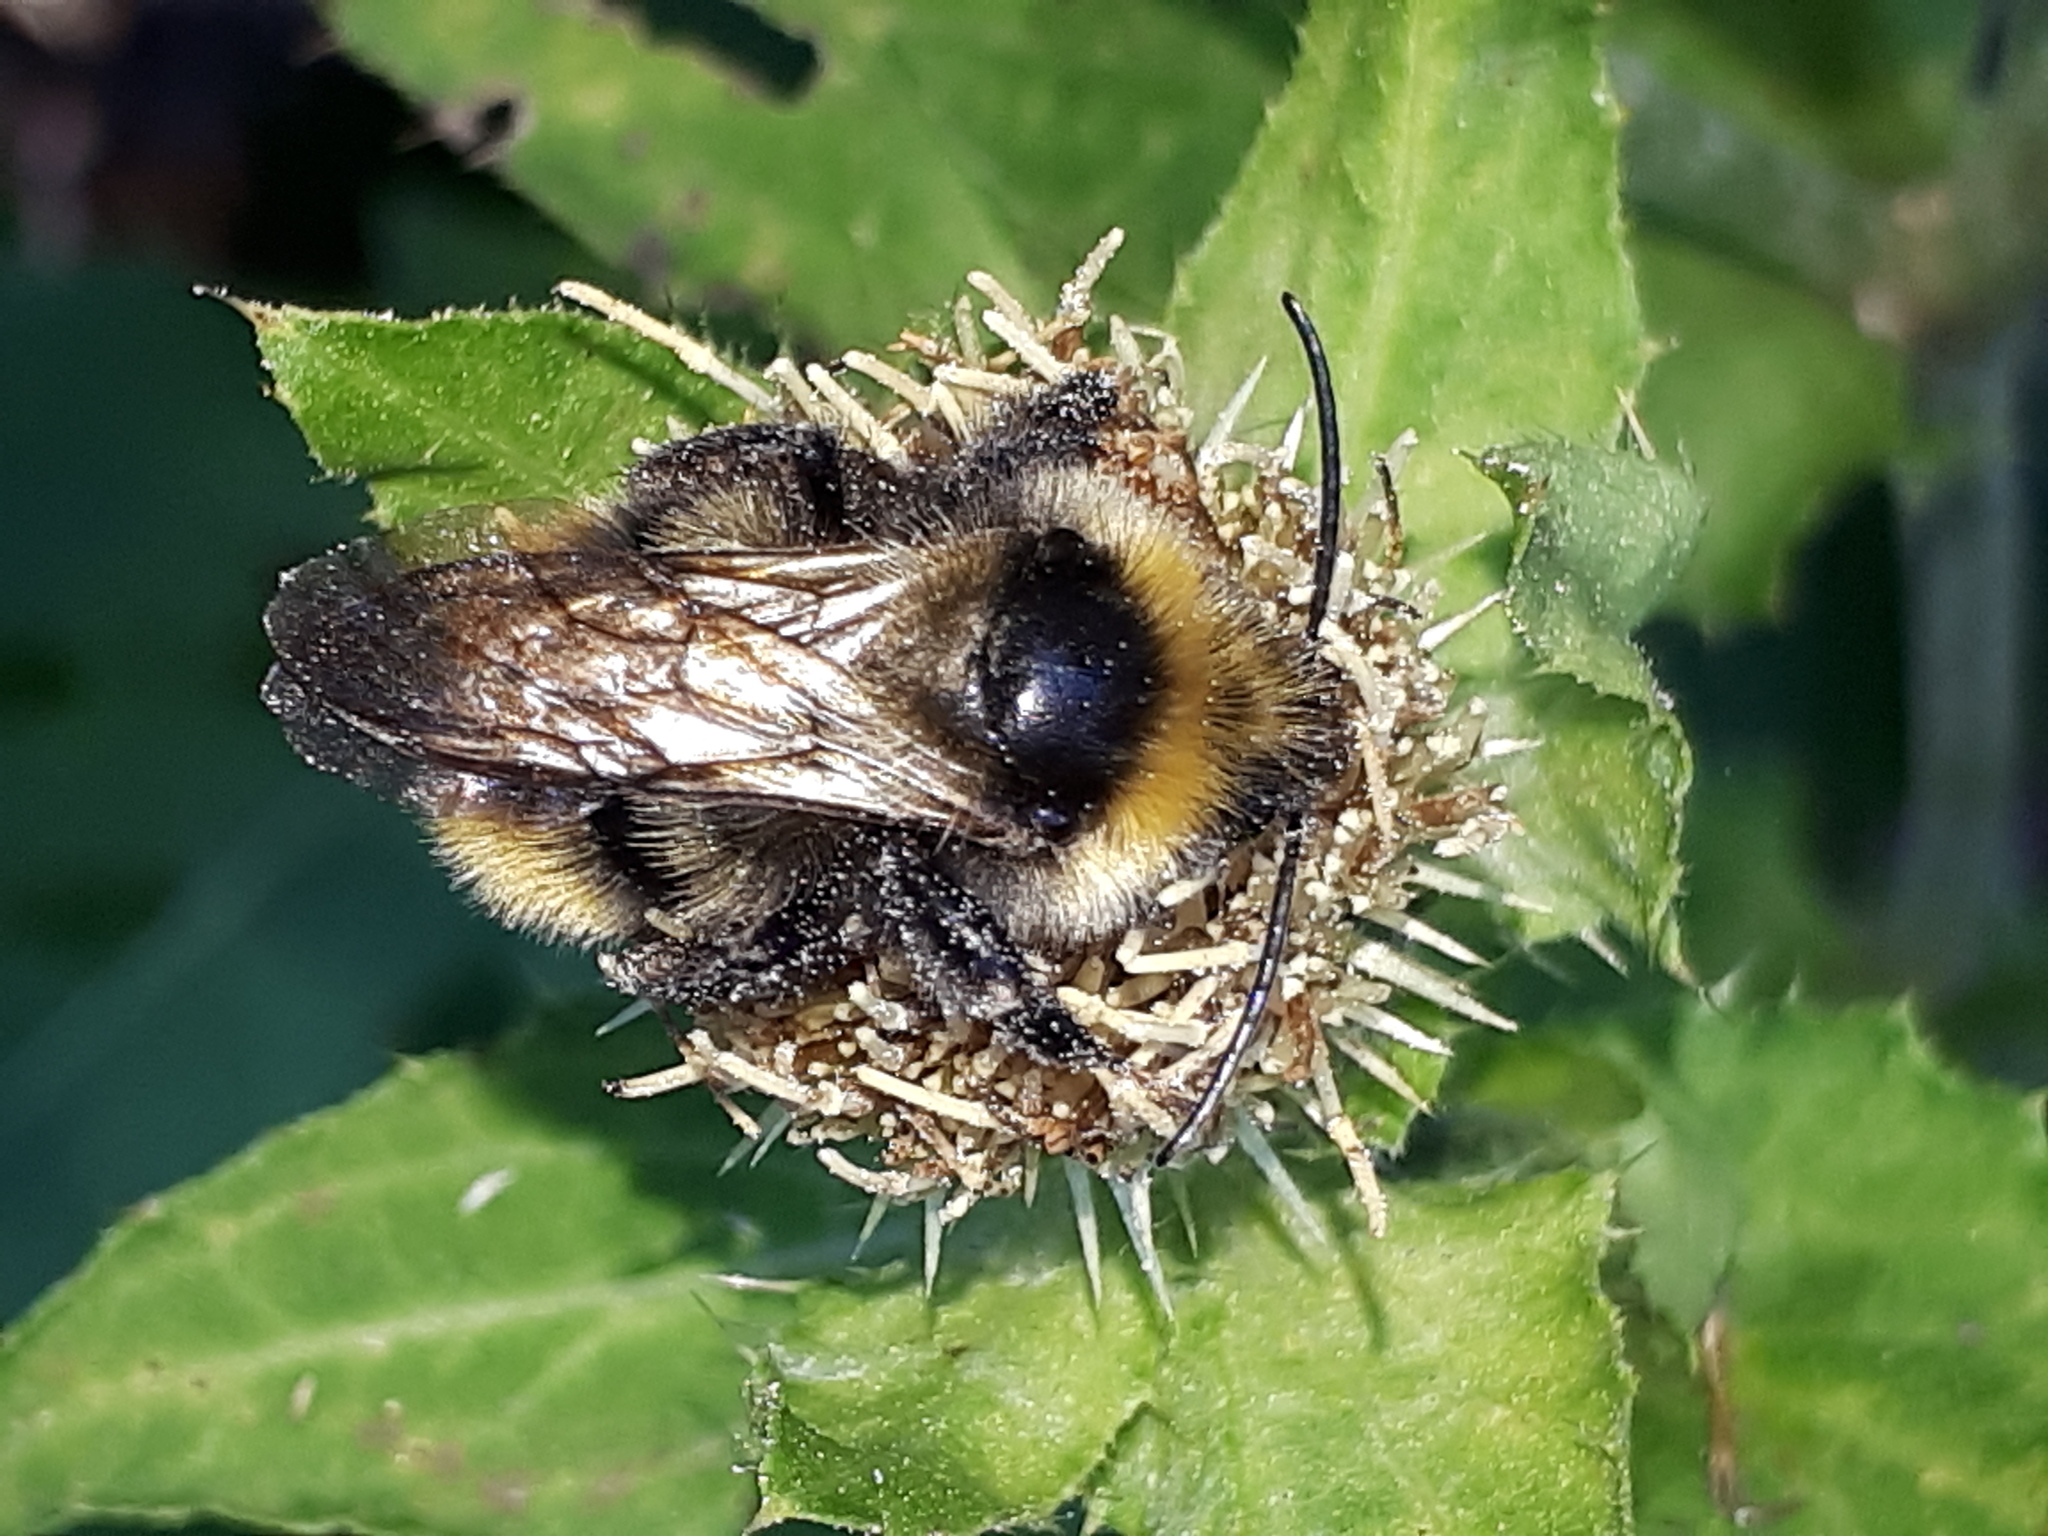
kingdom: Animalia
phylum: Arthropoda
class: Insecta
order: Hymenoptera
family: Apidae
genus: Bombus
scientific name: Bombus campestris
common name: Field cuckoo-bee
